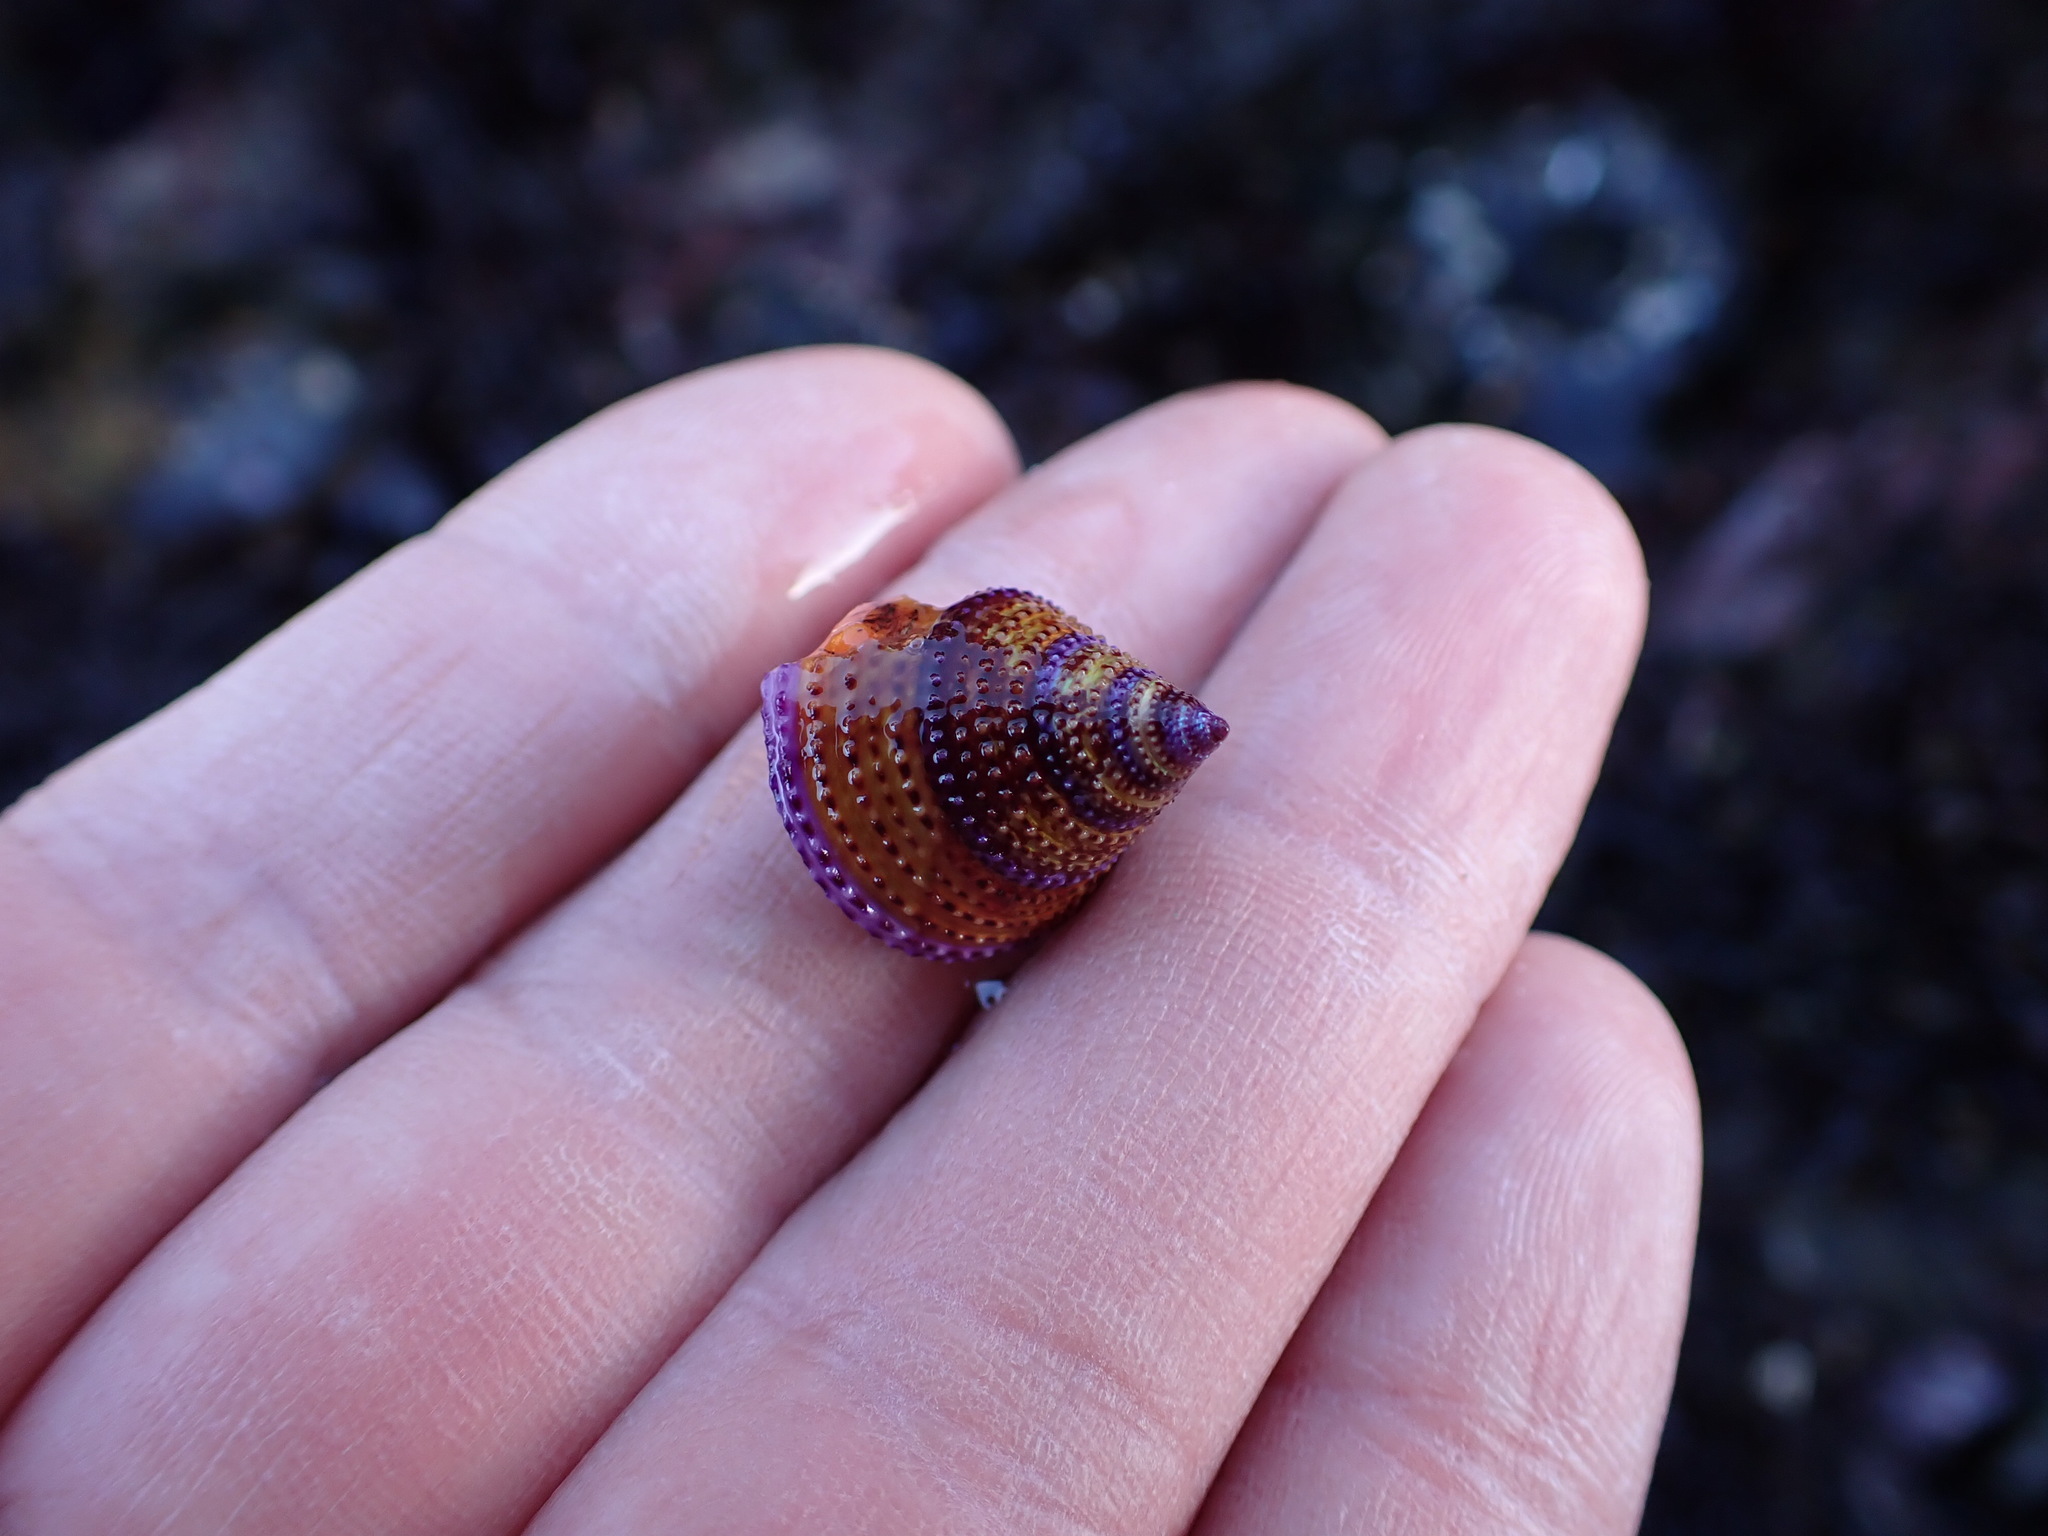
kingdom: Animalia
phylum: Mollusca
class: Gastropoda
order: Trochida
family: Calliostomatidae
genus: Calliostoma
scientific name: Calliostoma annulatum
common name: Blue-ring topsnail
